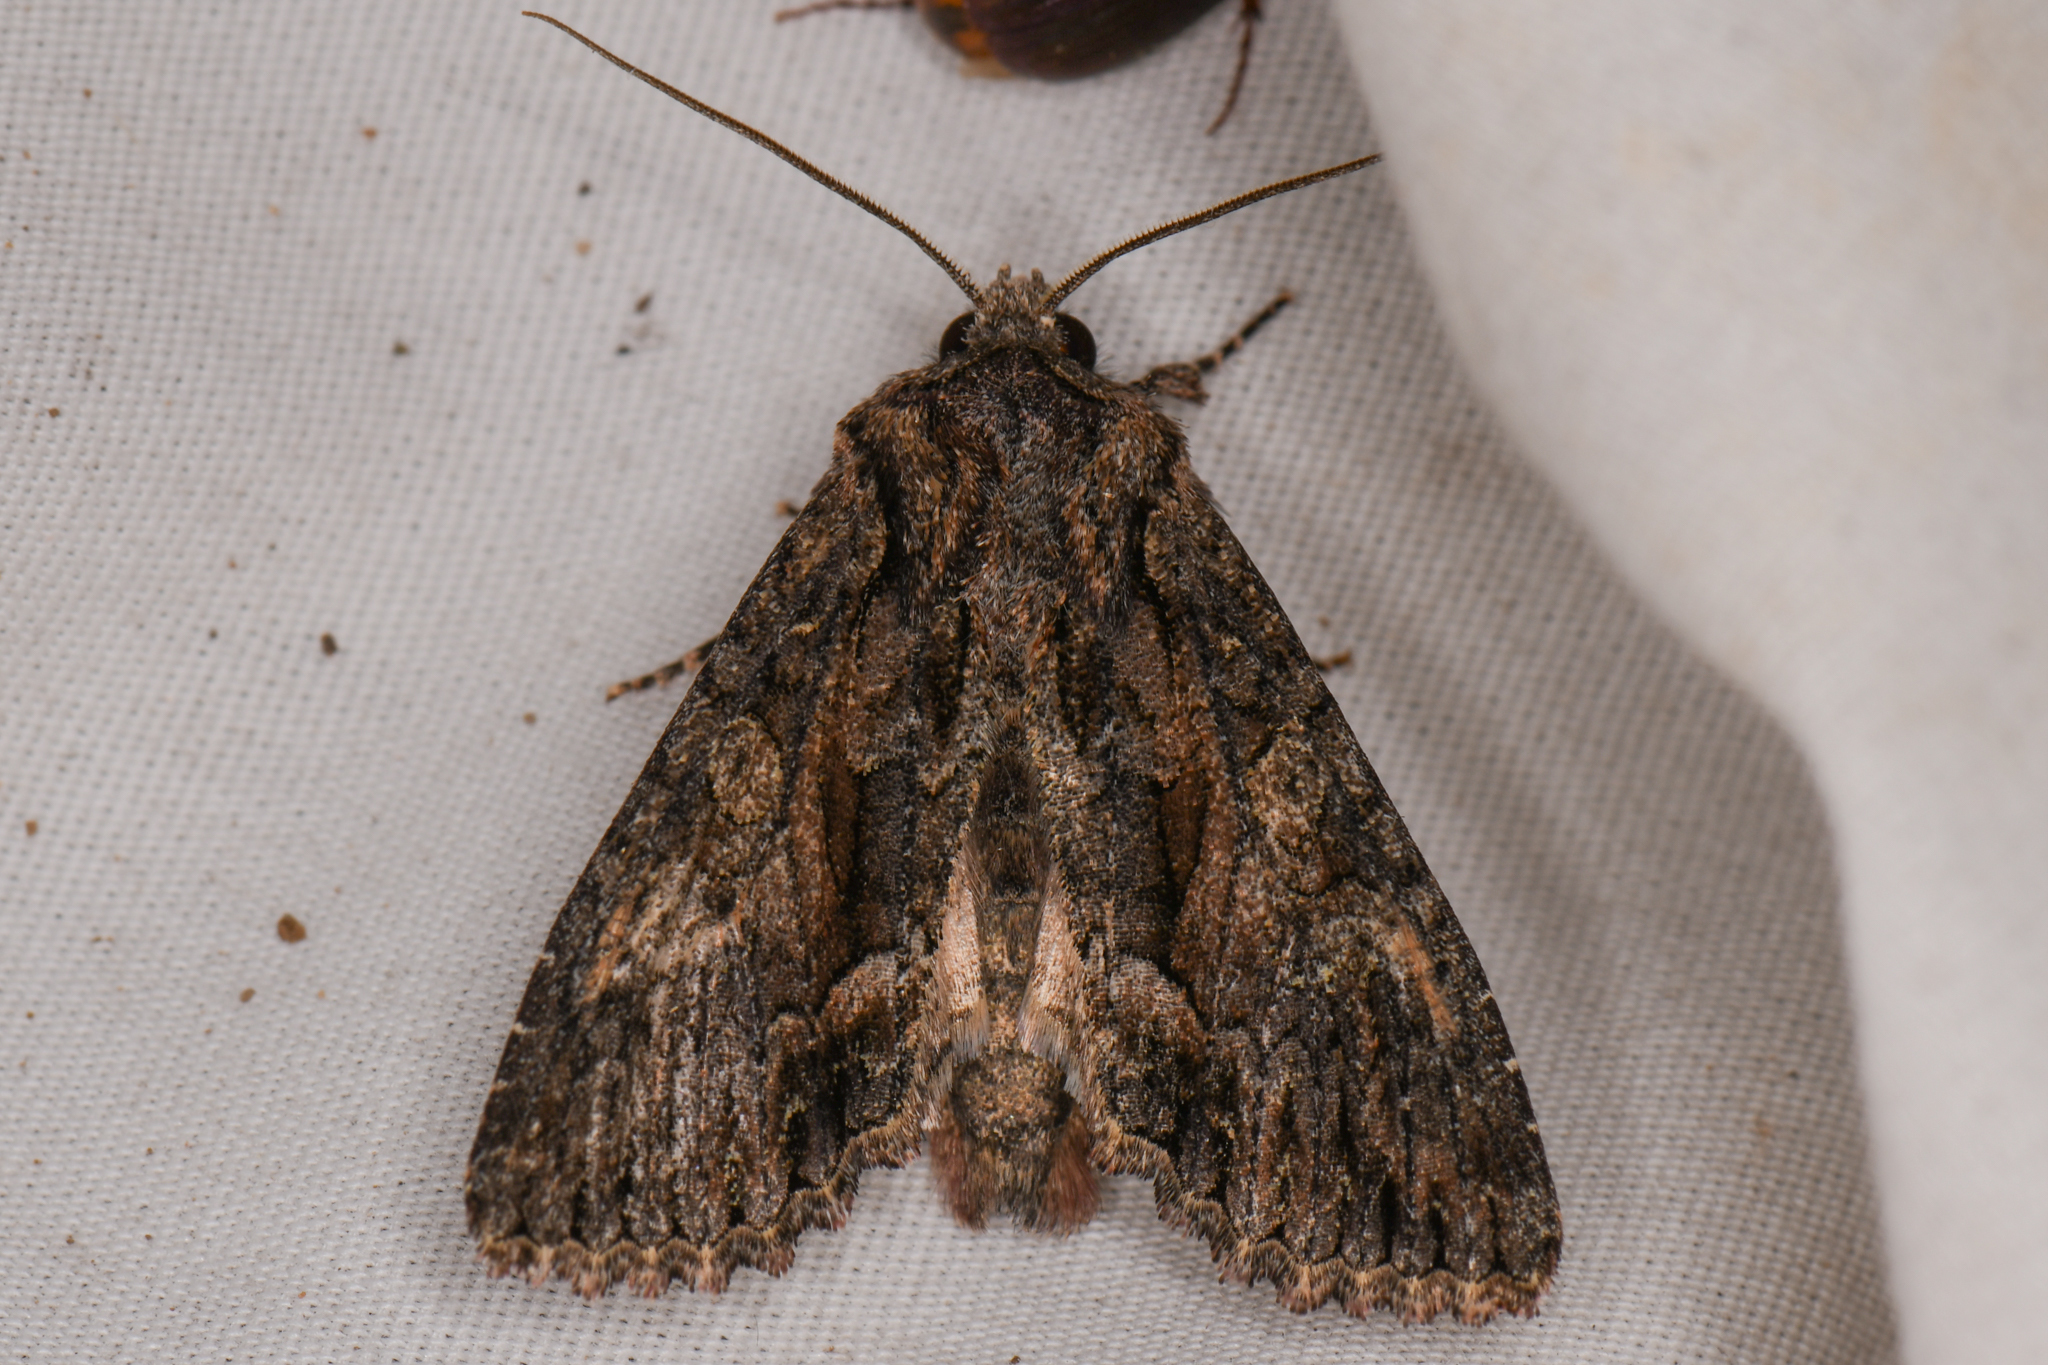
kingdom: Animalia
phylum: Arthropoda
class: Insecta
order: Lepidoptera
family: Noctuidae
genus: Fishia
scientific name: Fishia discors
